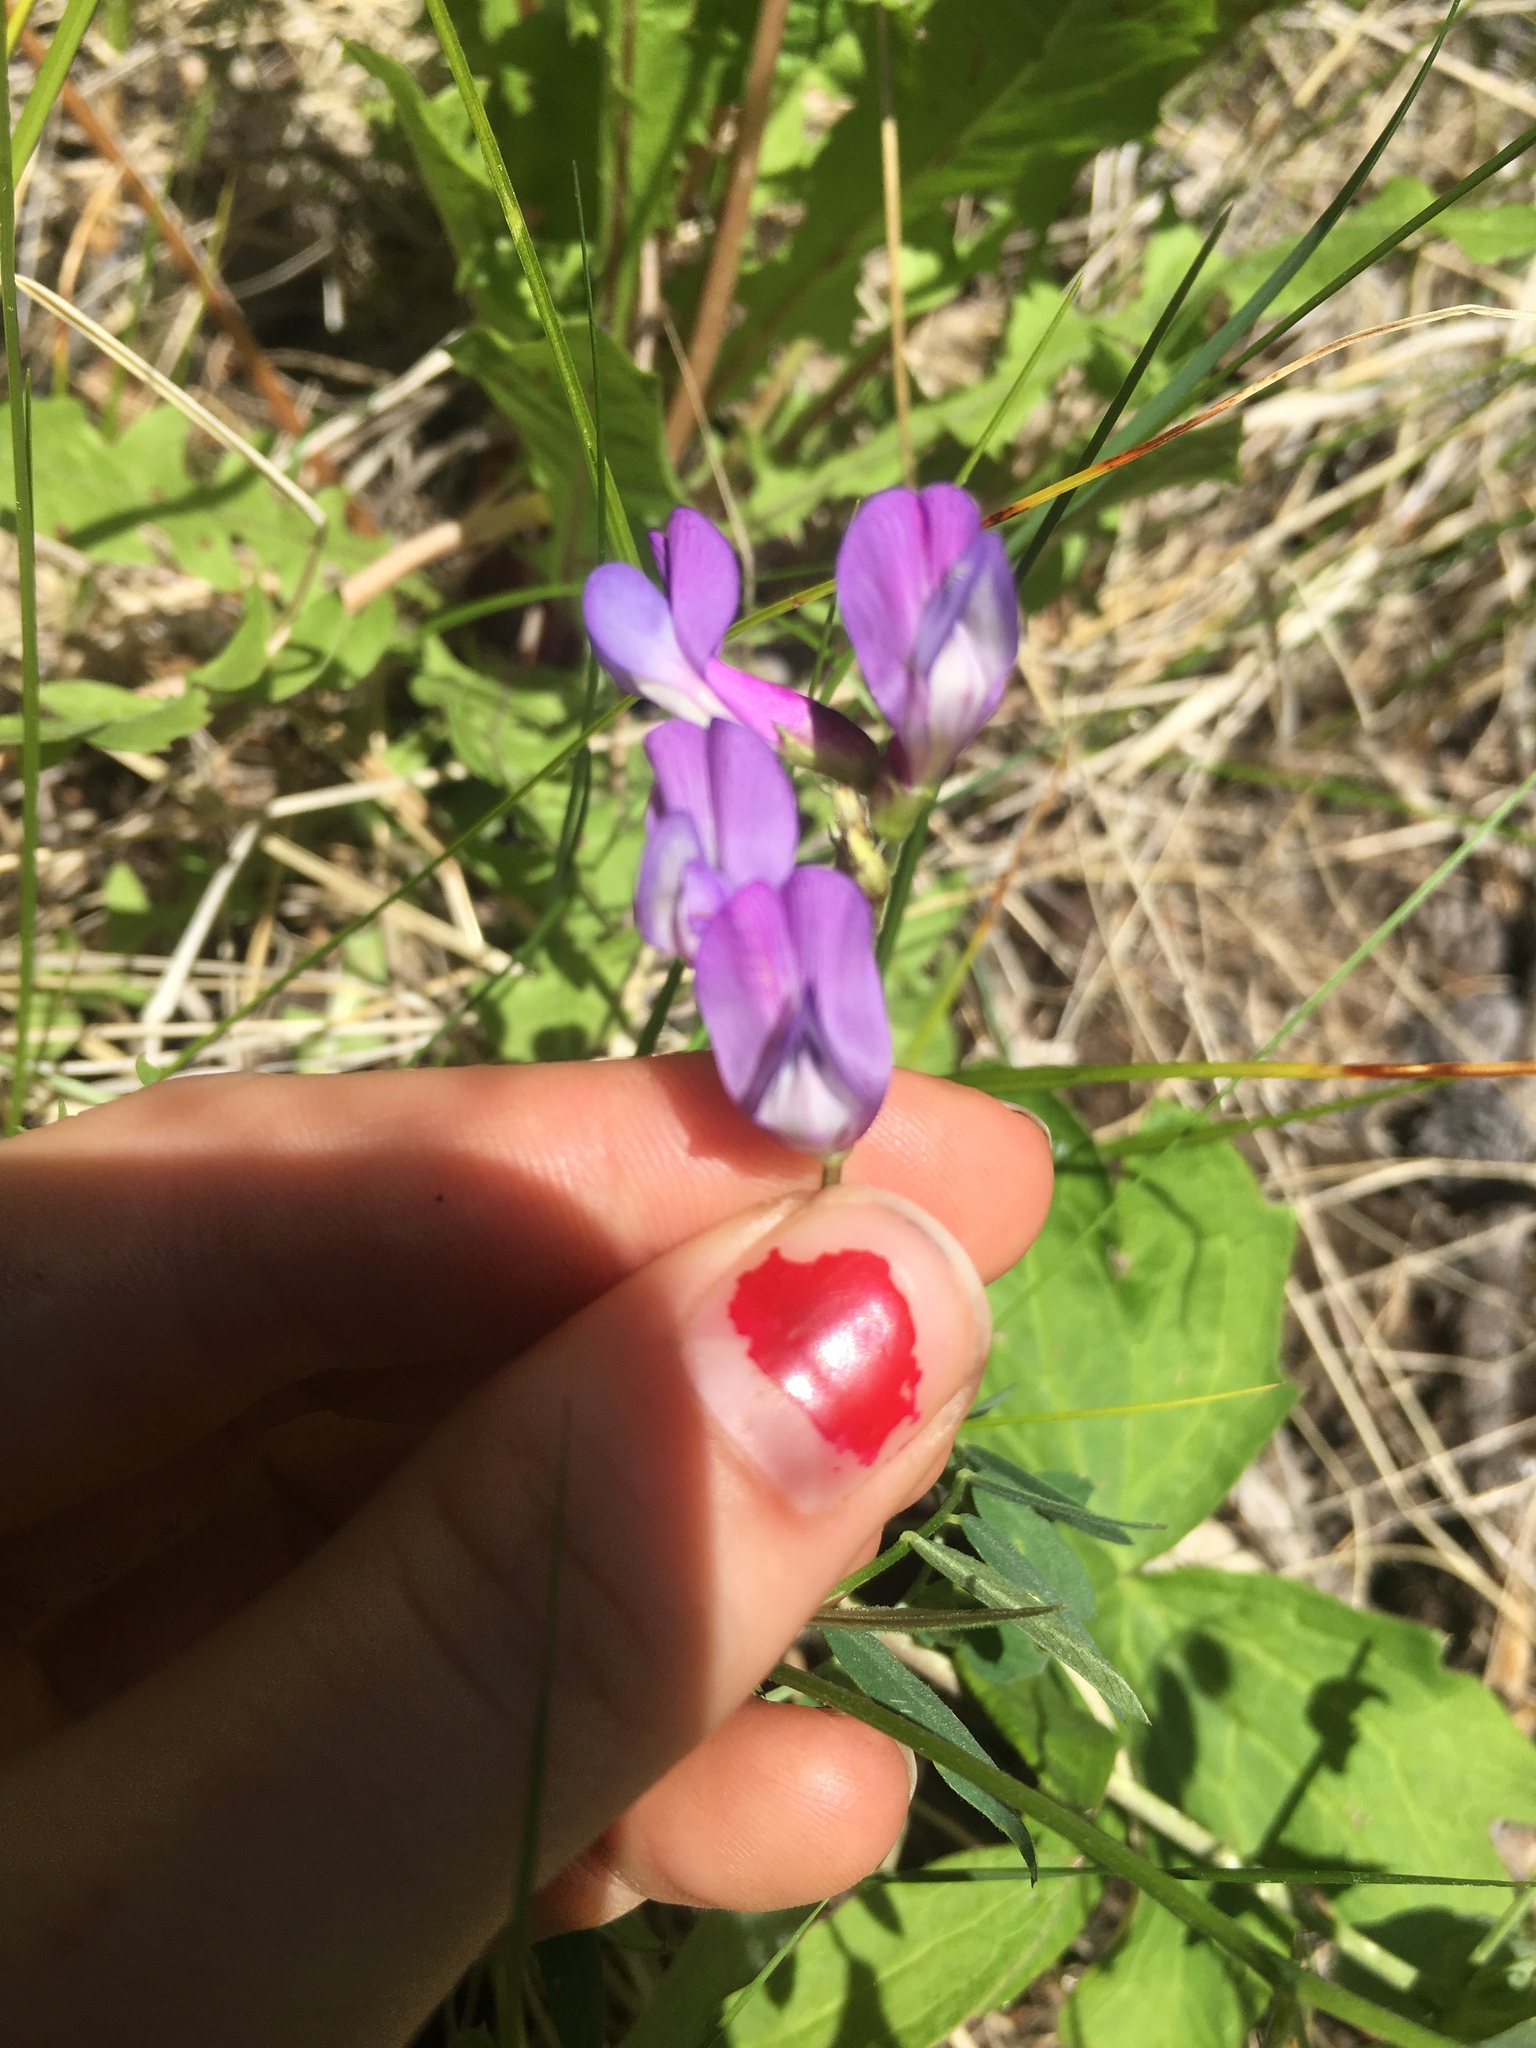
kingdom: Plantae
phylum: Tracheophyta
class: Magnoliopsida
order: Fabales
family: Fabaceae
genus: Vicia
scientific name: Vicia americana
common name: American vetch
